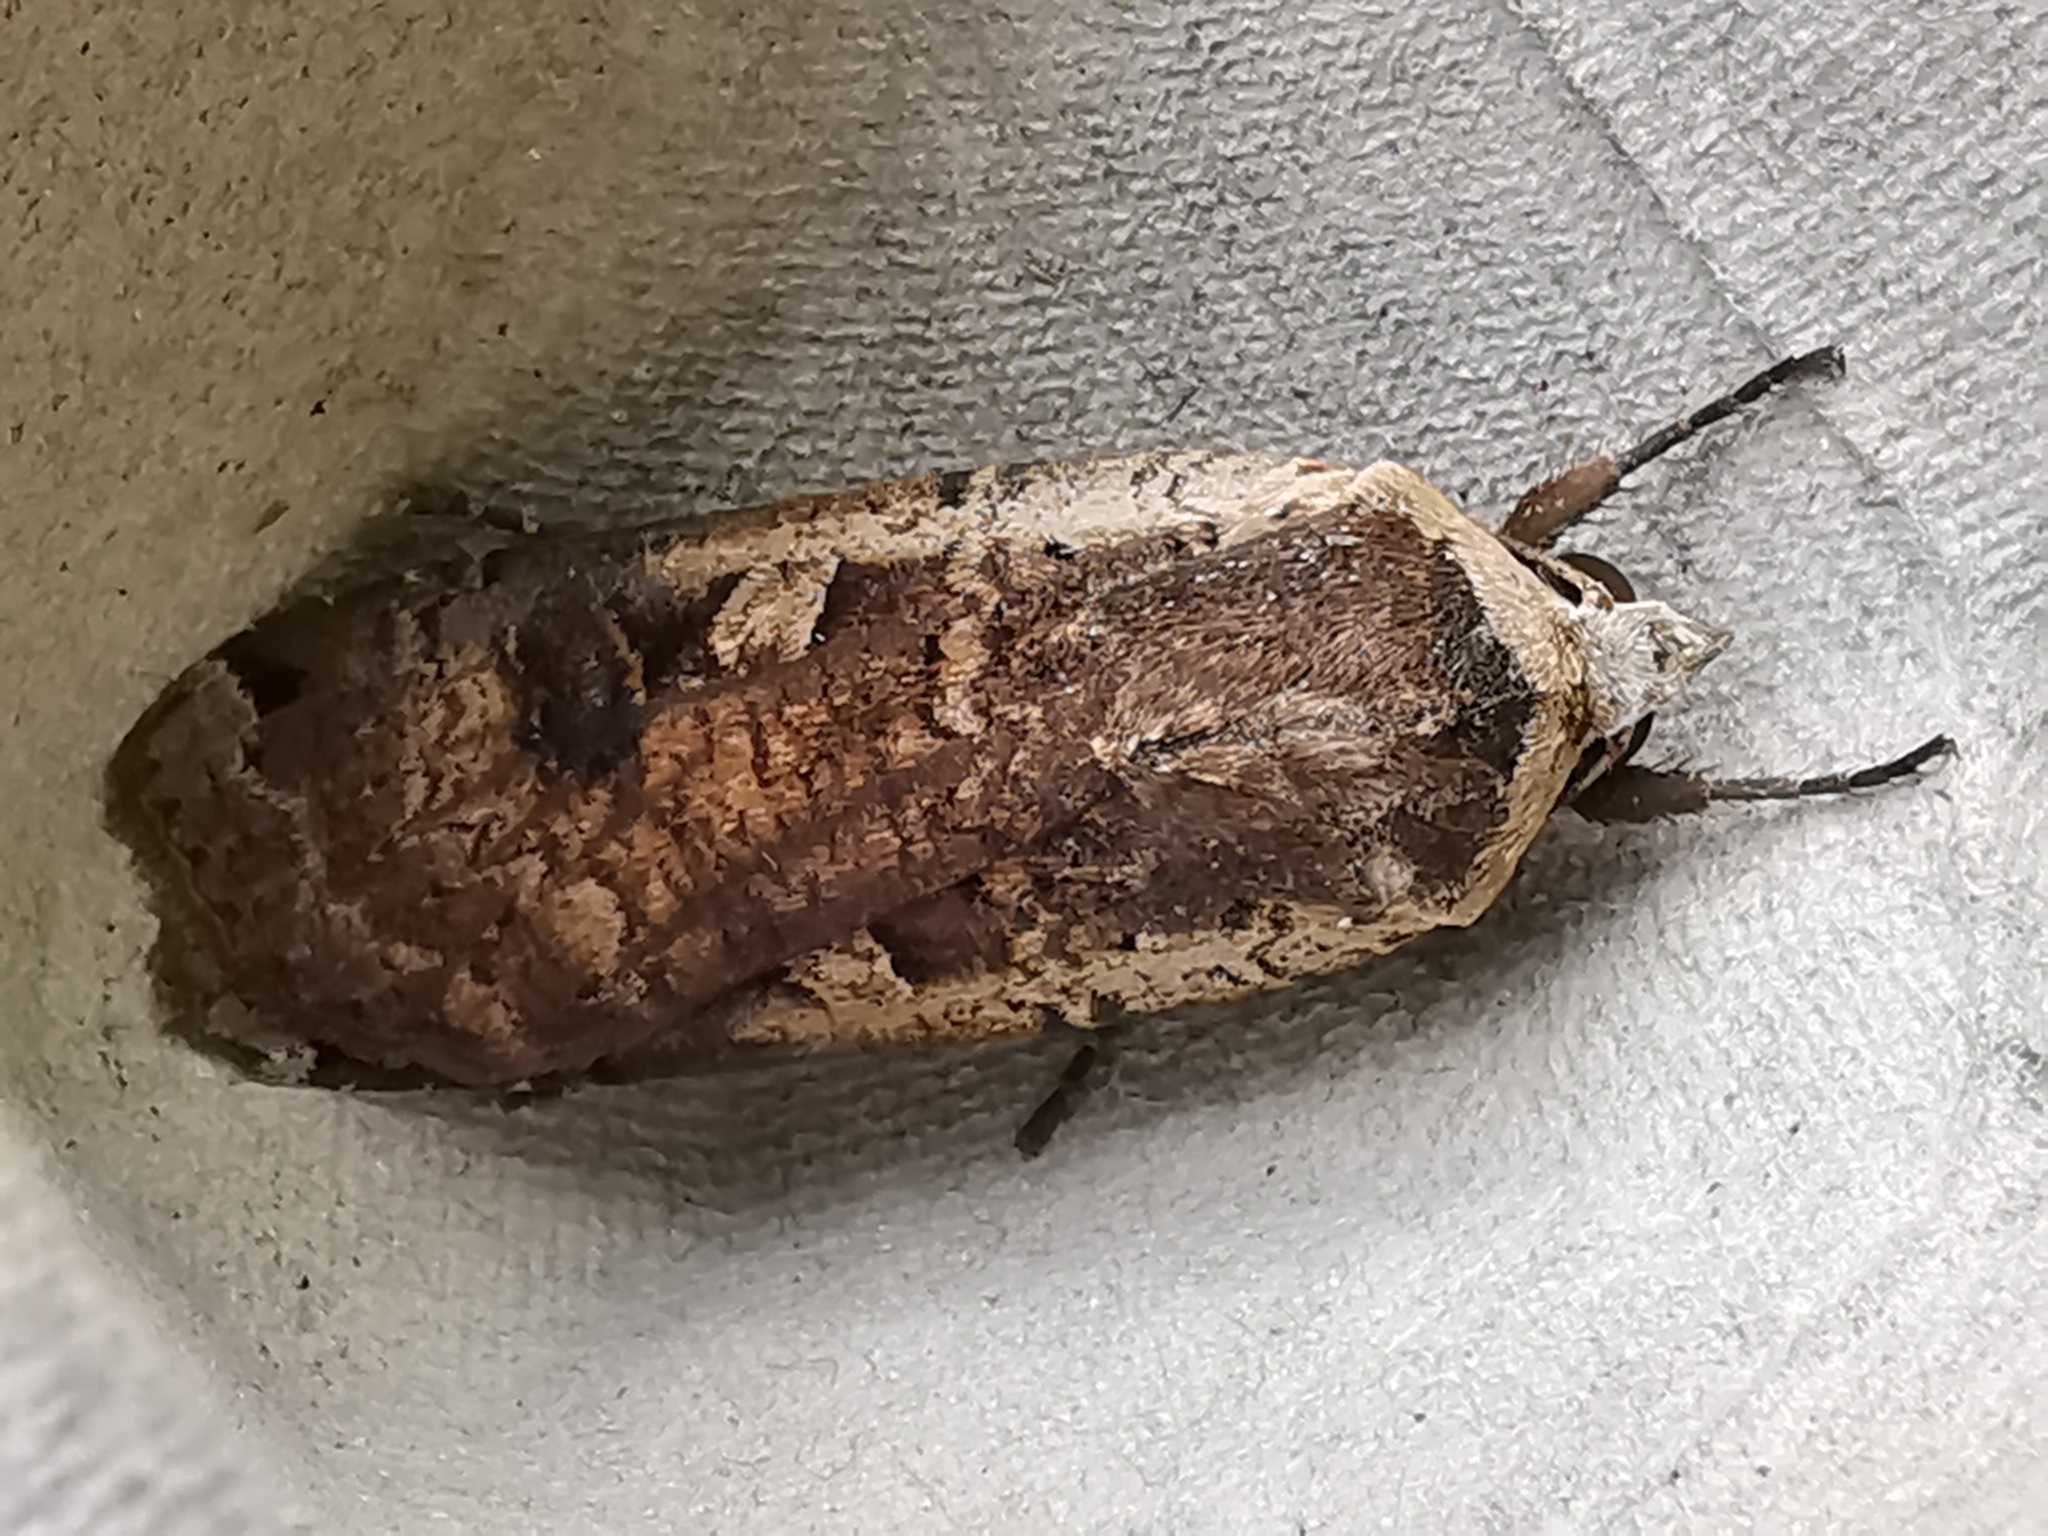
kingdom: Animalia
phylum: Arthropoda
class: Insecta
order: Lepidoptera
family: Noctuidae
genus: Noctua
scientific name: Noctua pronuba
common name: Large yellow underwing
